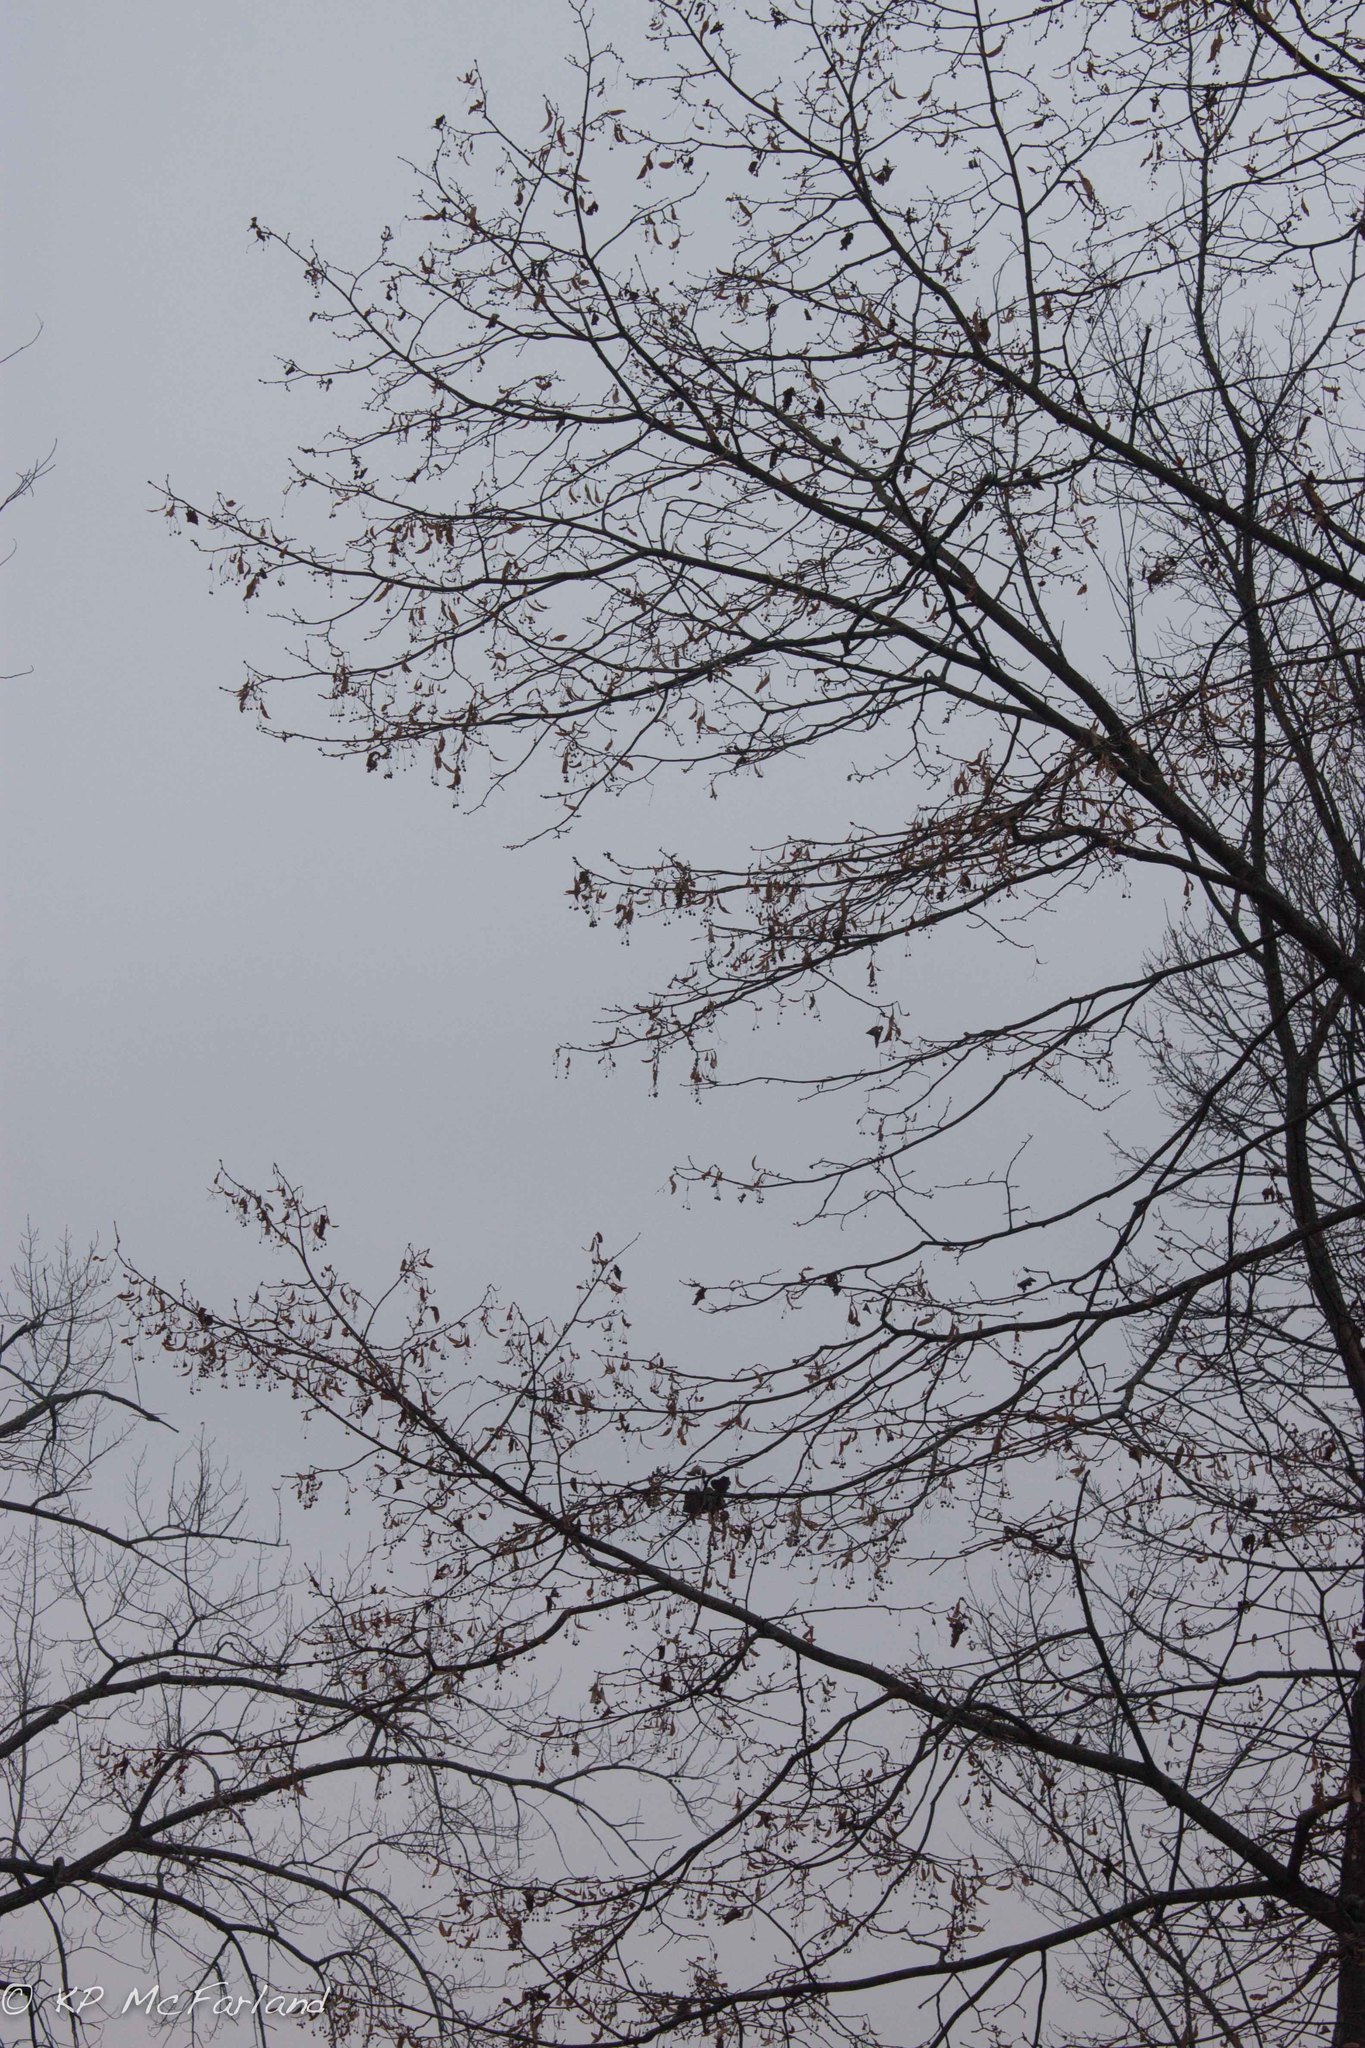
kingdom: Plantae
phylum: Tracheophyta
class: Magnoliopsida
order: Malvales
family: Malvaceae
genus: Tilia
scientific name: Tilia americana
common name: Basswood
